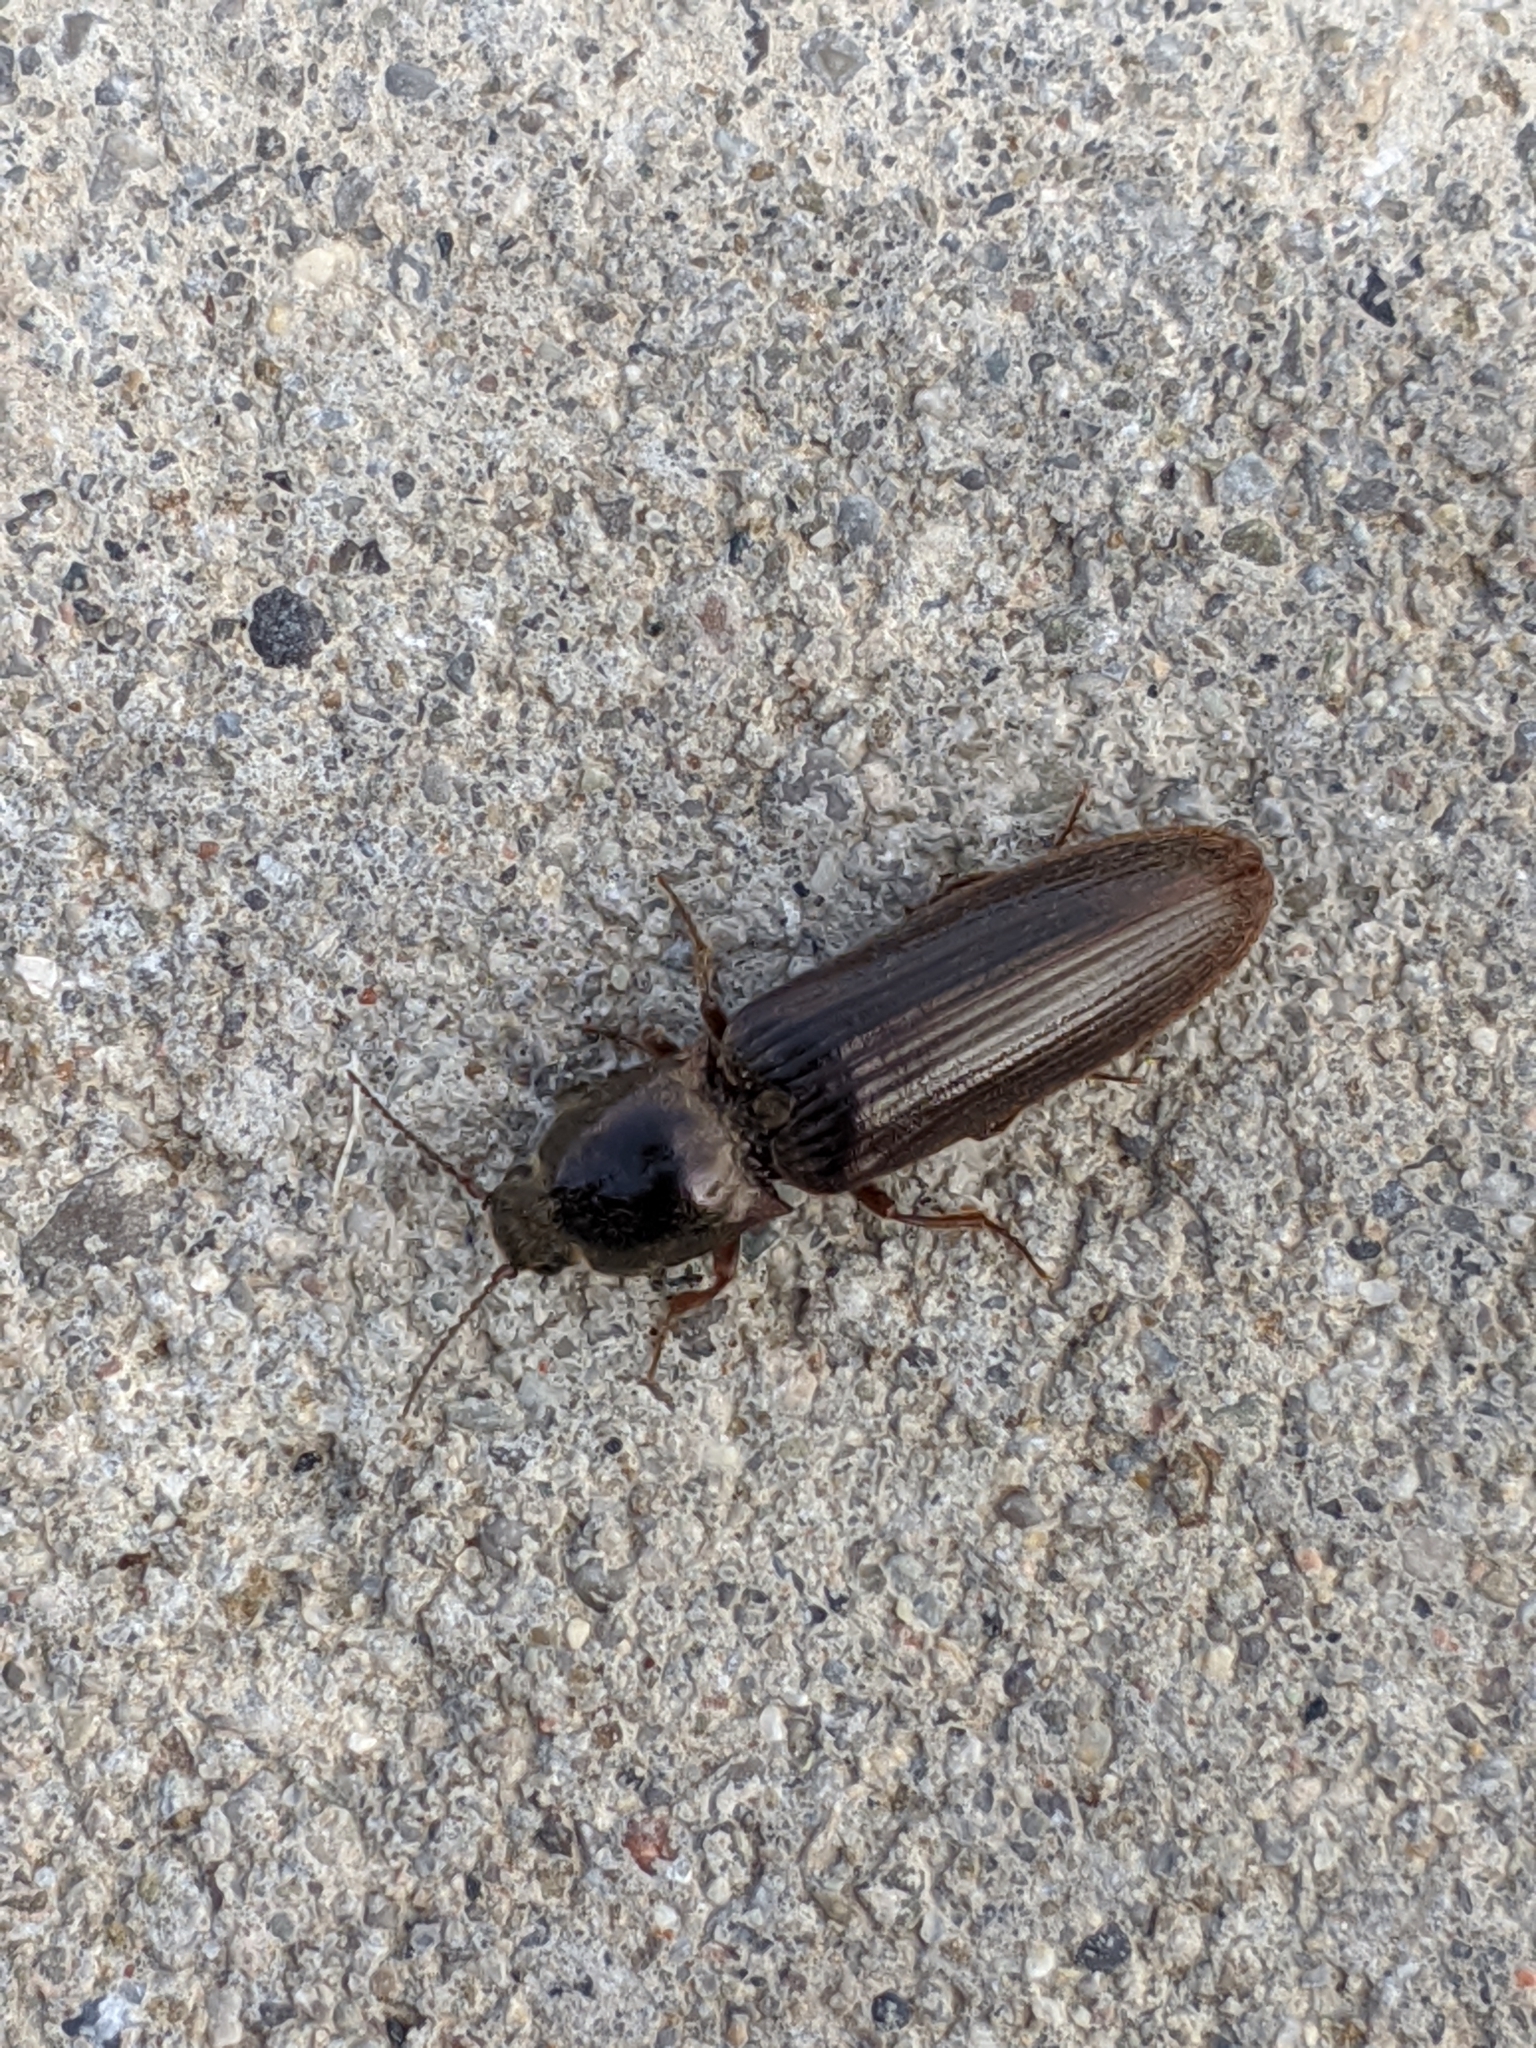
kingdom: Animalia
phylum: Arthropoda
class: Insecta
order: Coleoptera
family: Elateridae
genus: Sylvanelater
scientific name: Sylvanelater cylindriformis
